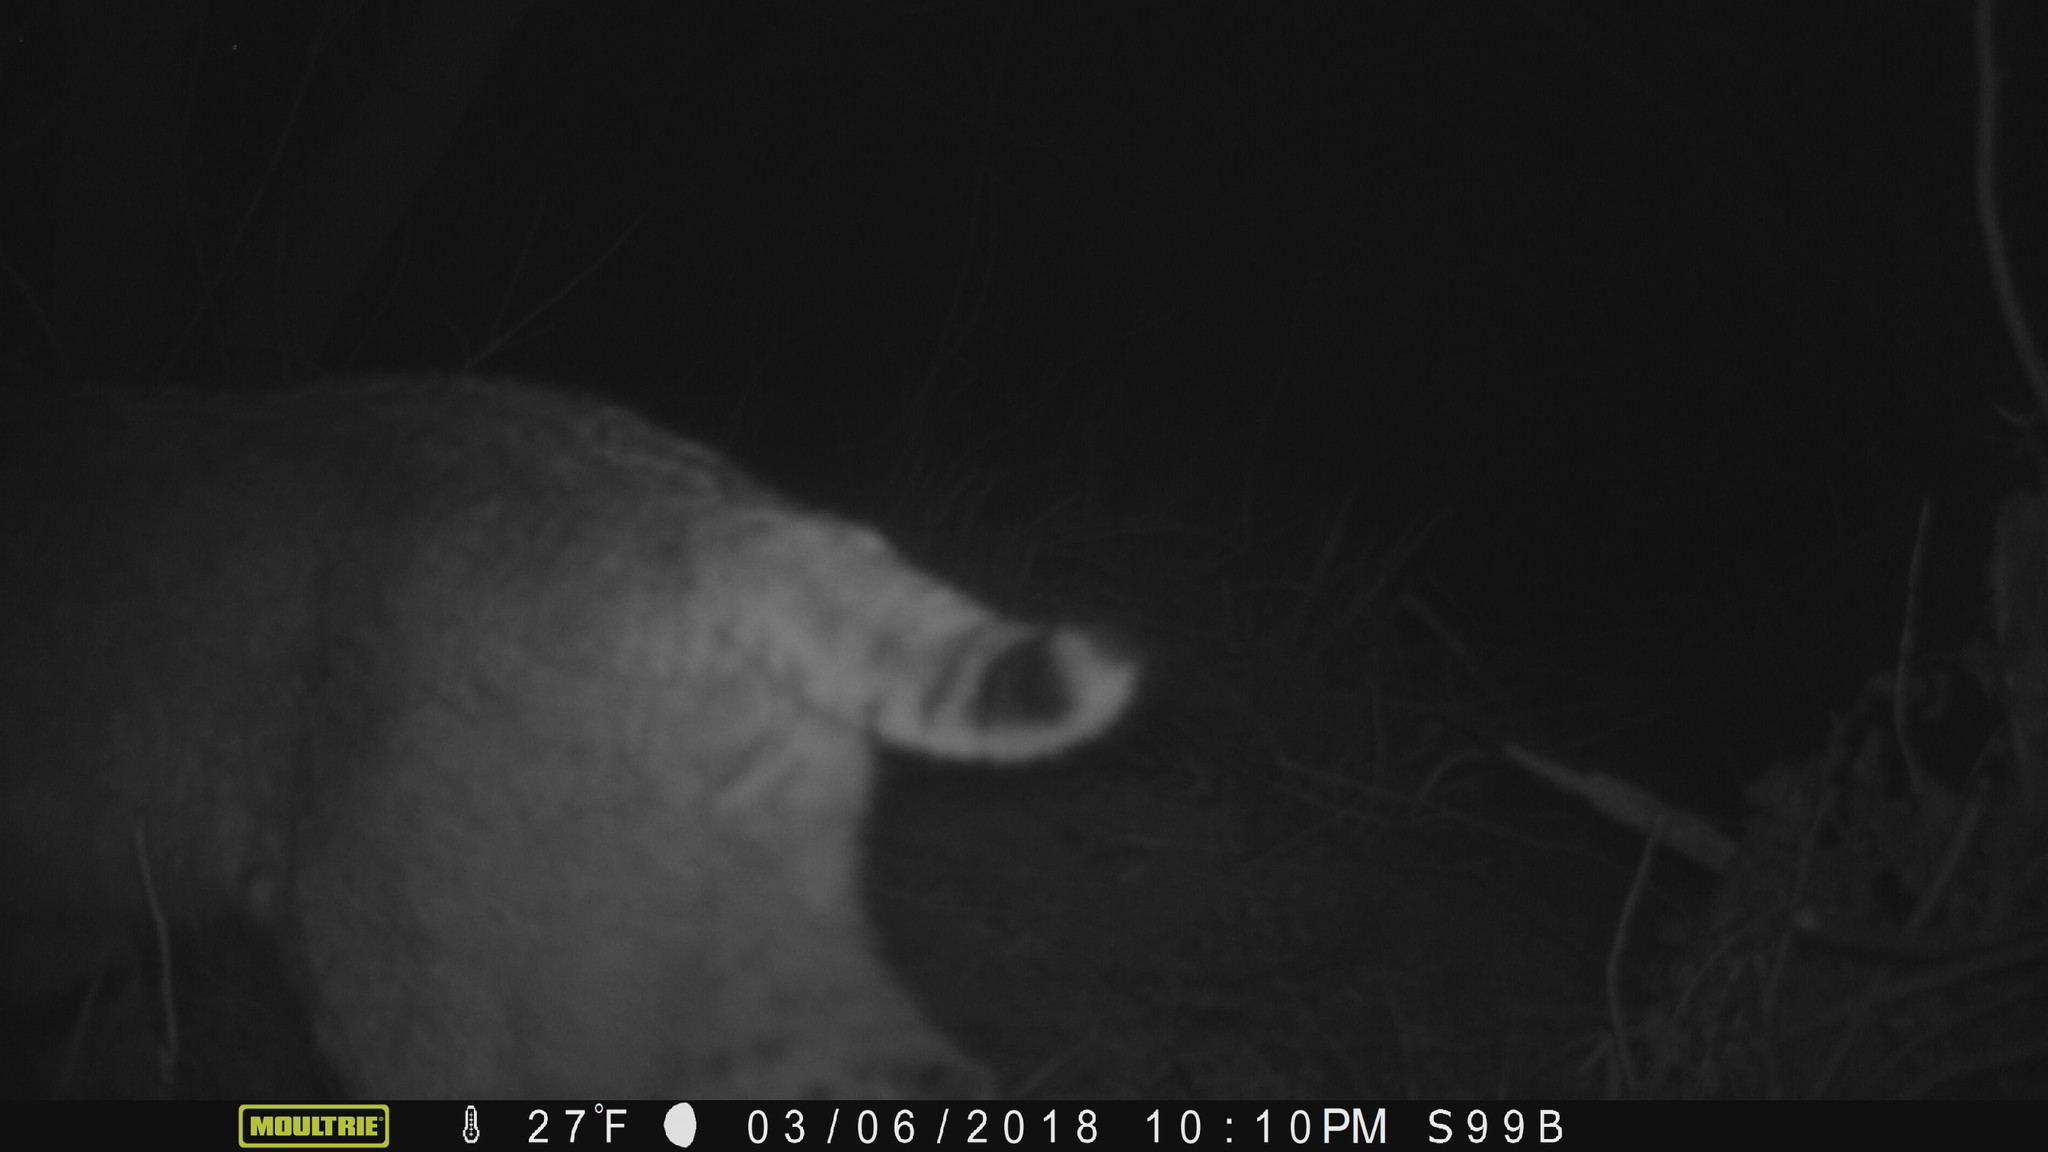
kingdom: Animalia
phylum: Chordata
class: Mammalia
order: Carnivora
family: Felidae
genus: Lynx
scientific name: Lynx rufus
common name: Bobcat
